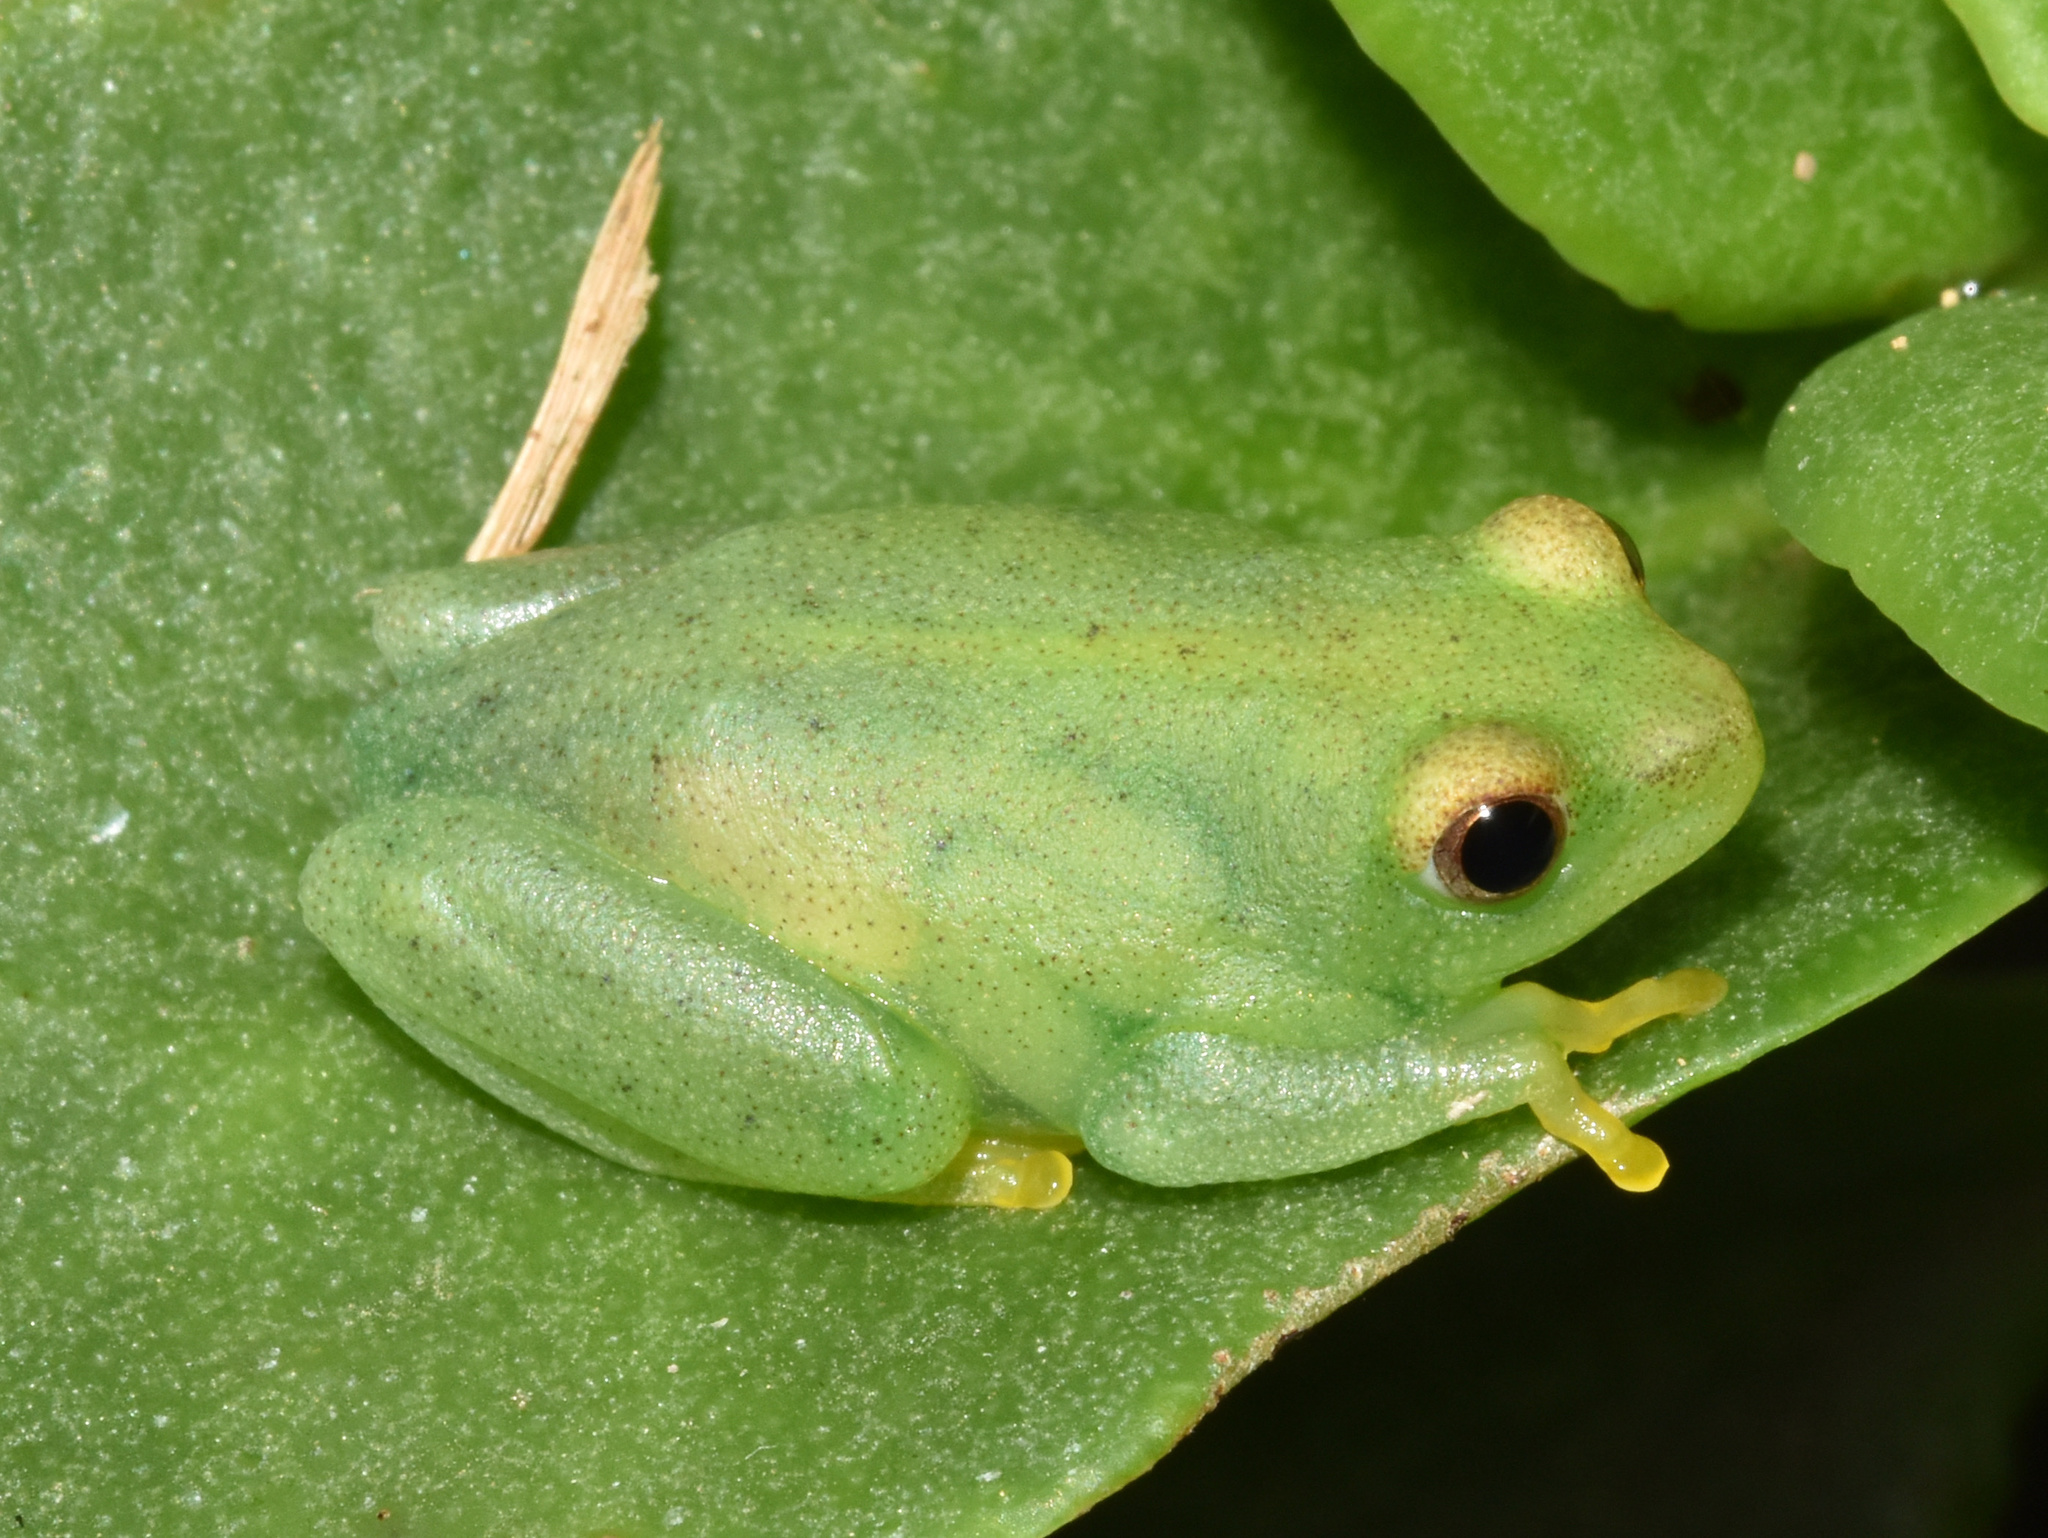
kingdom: Animalia
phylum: Chordata
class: Amphibia
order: Anura
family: Hyperoliidae
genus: Hyperolius
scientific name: Hyperolius pusillus
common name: Water lily reed frog
